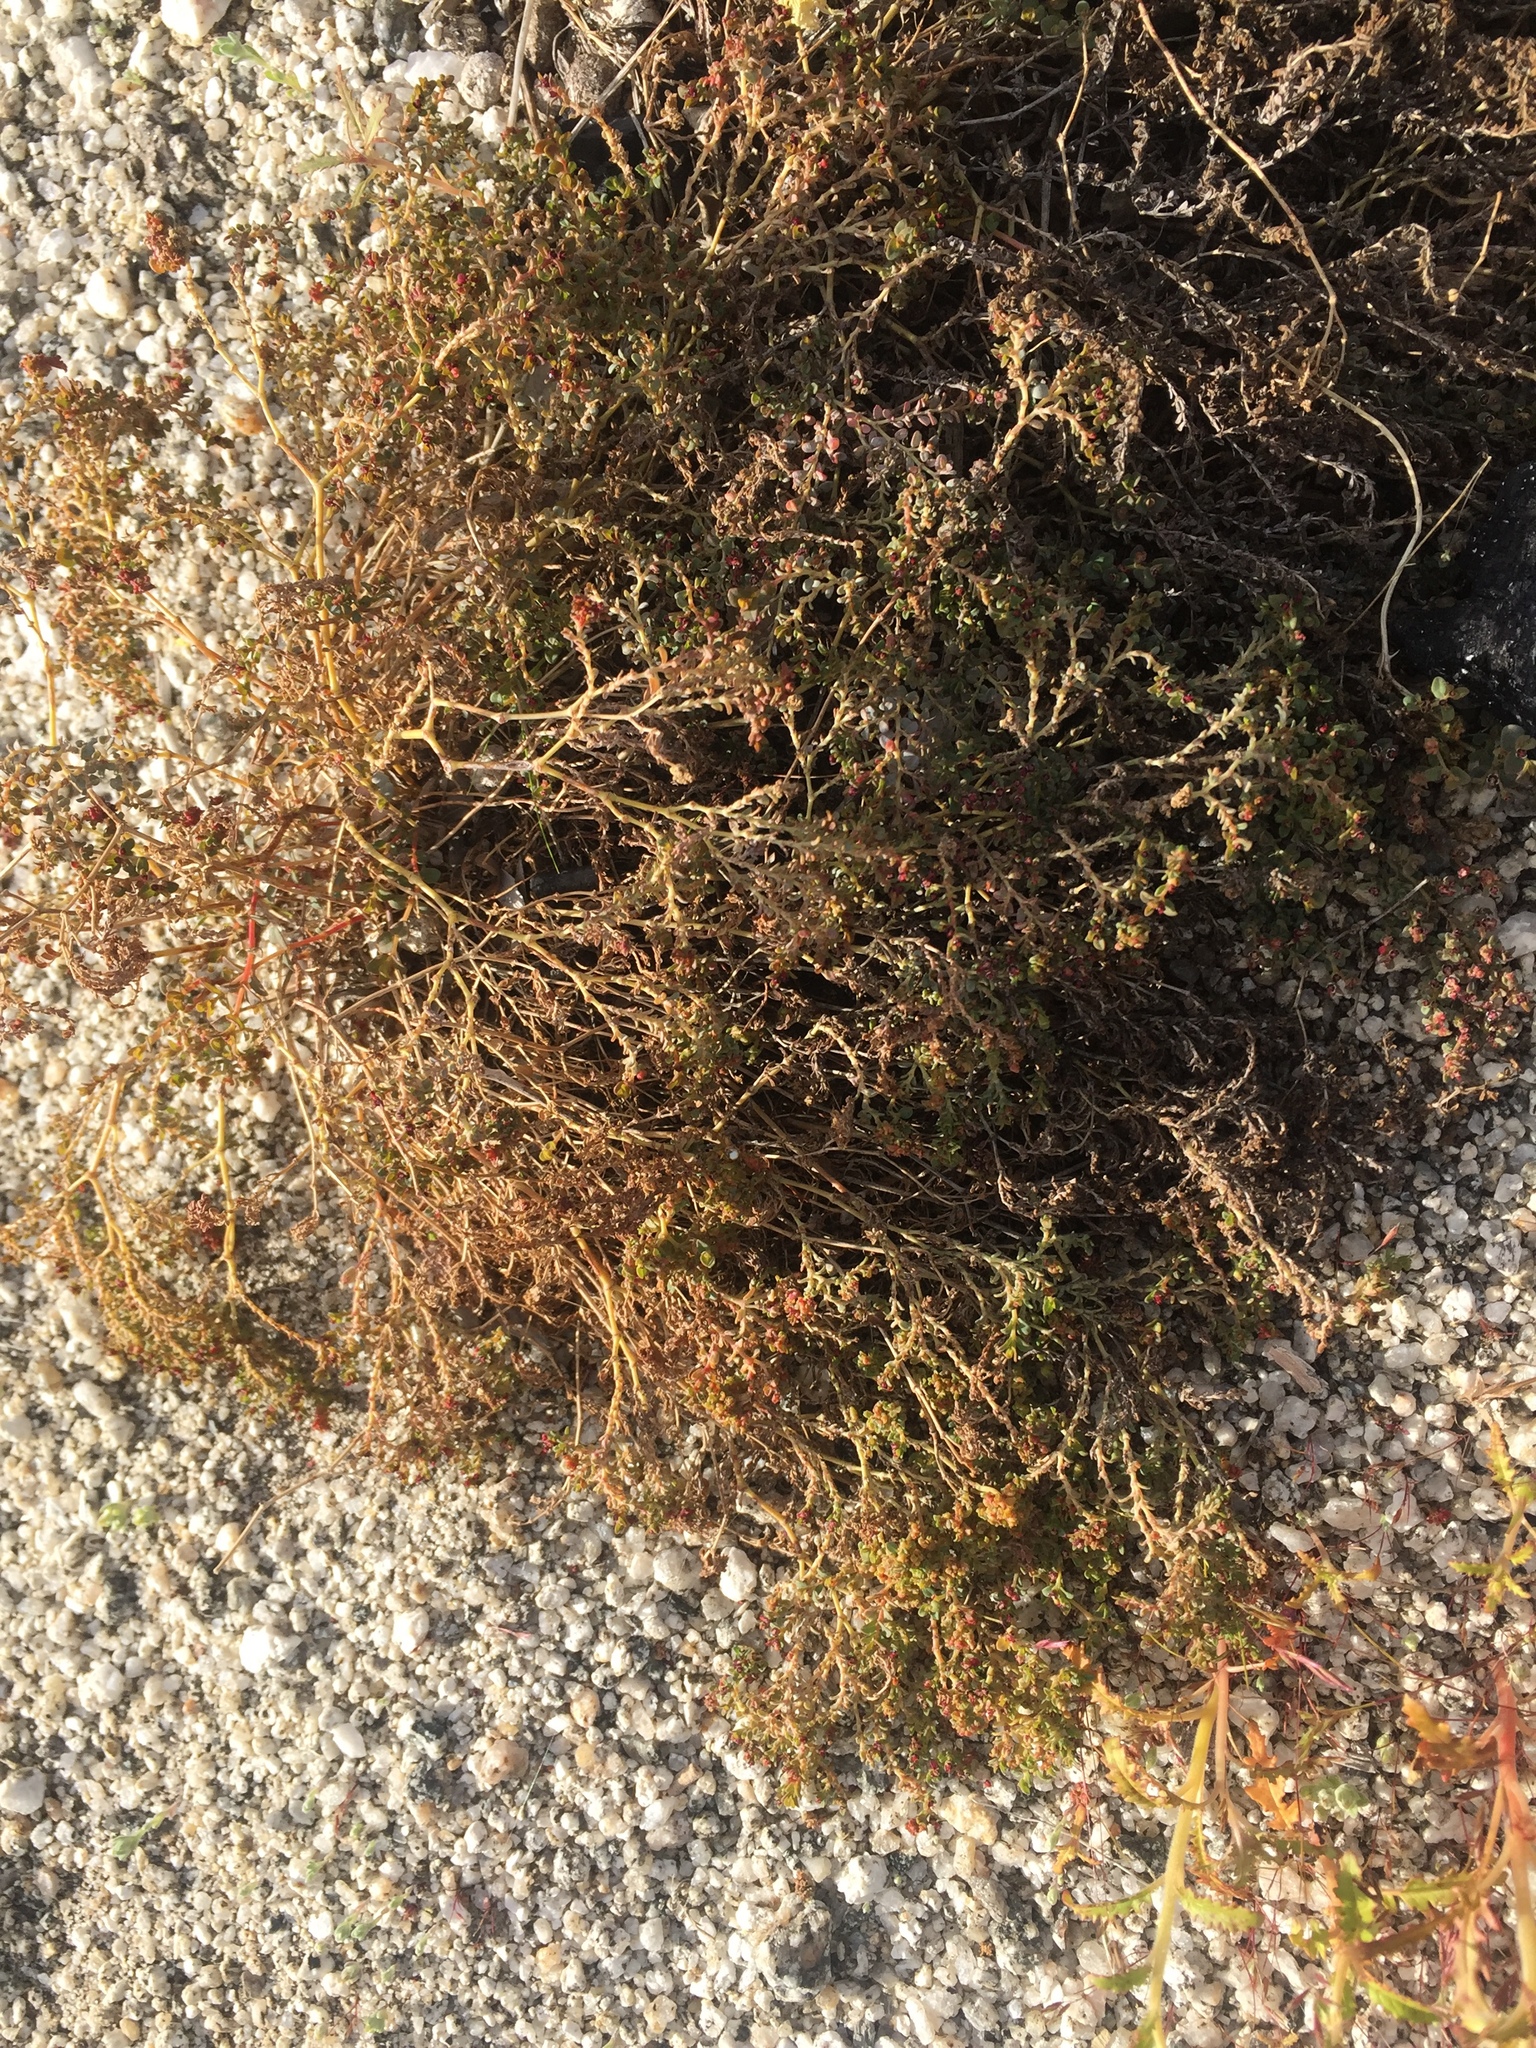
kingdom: Plantae
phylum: Tracheophyta
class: Magnoliopsida
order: Malpighiales
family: Euphorbiaceae
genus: Euphorbia
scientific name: Euphorbia polycarpa
